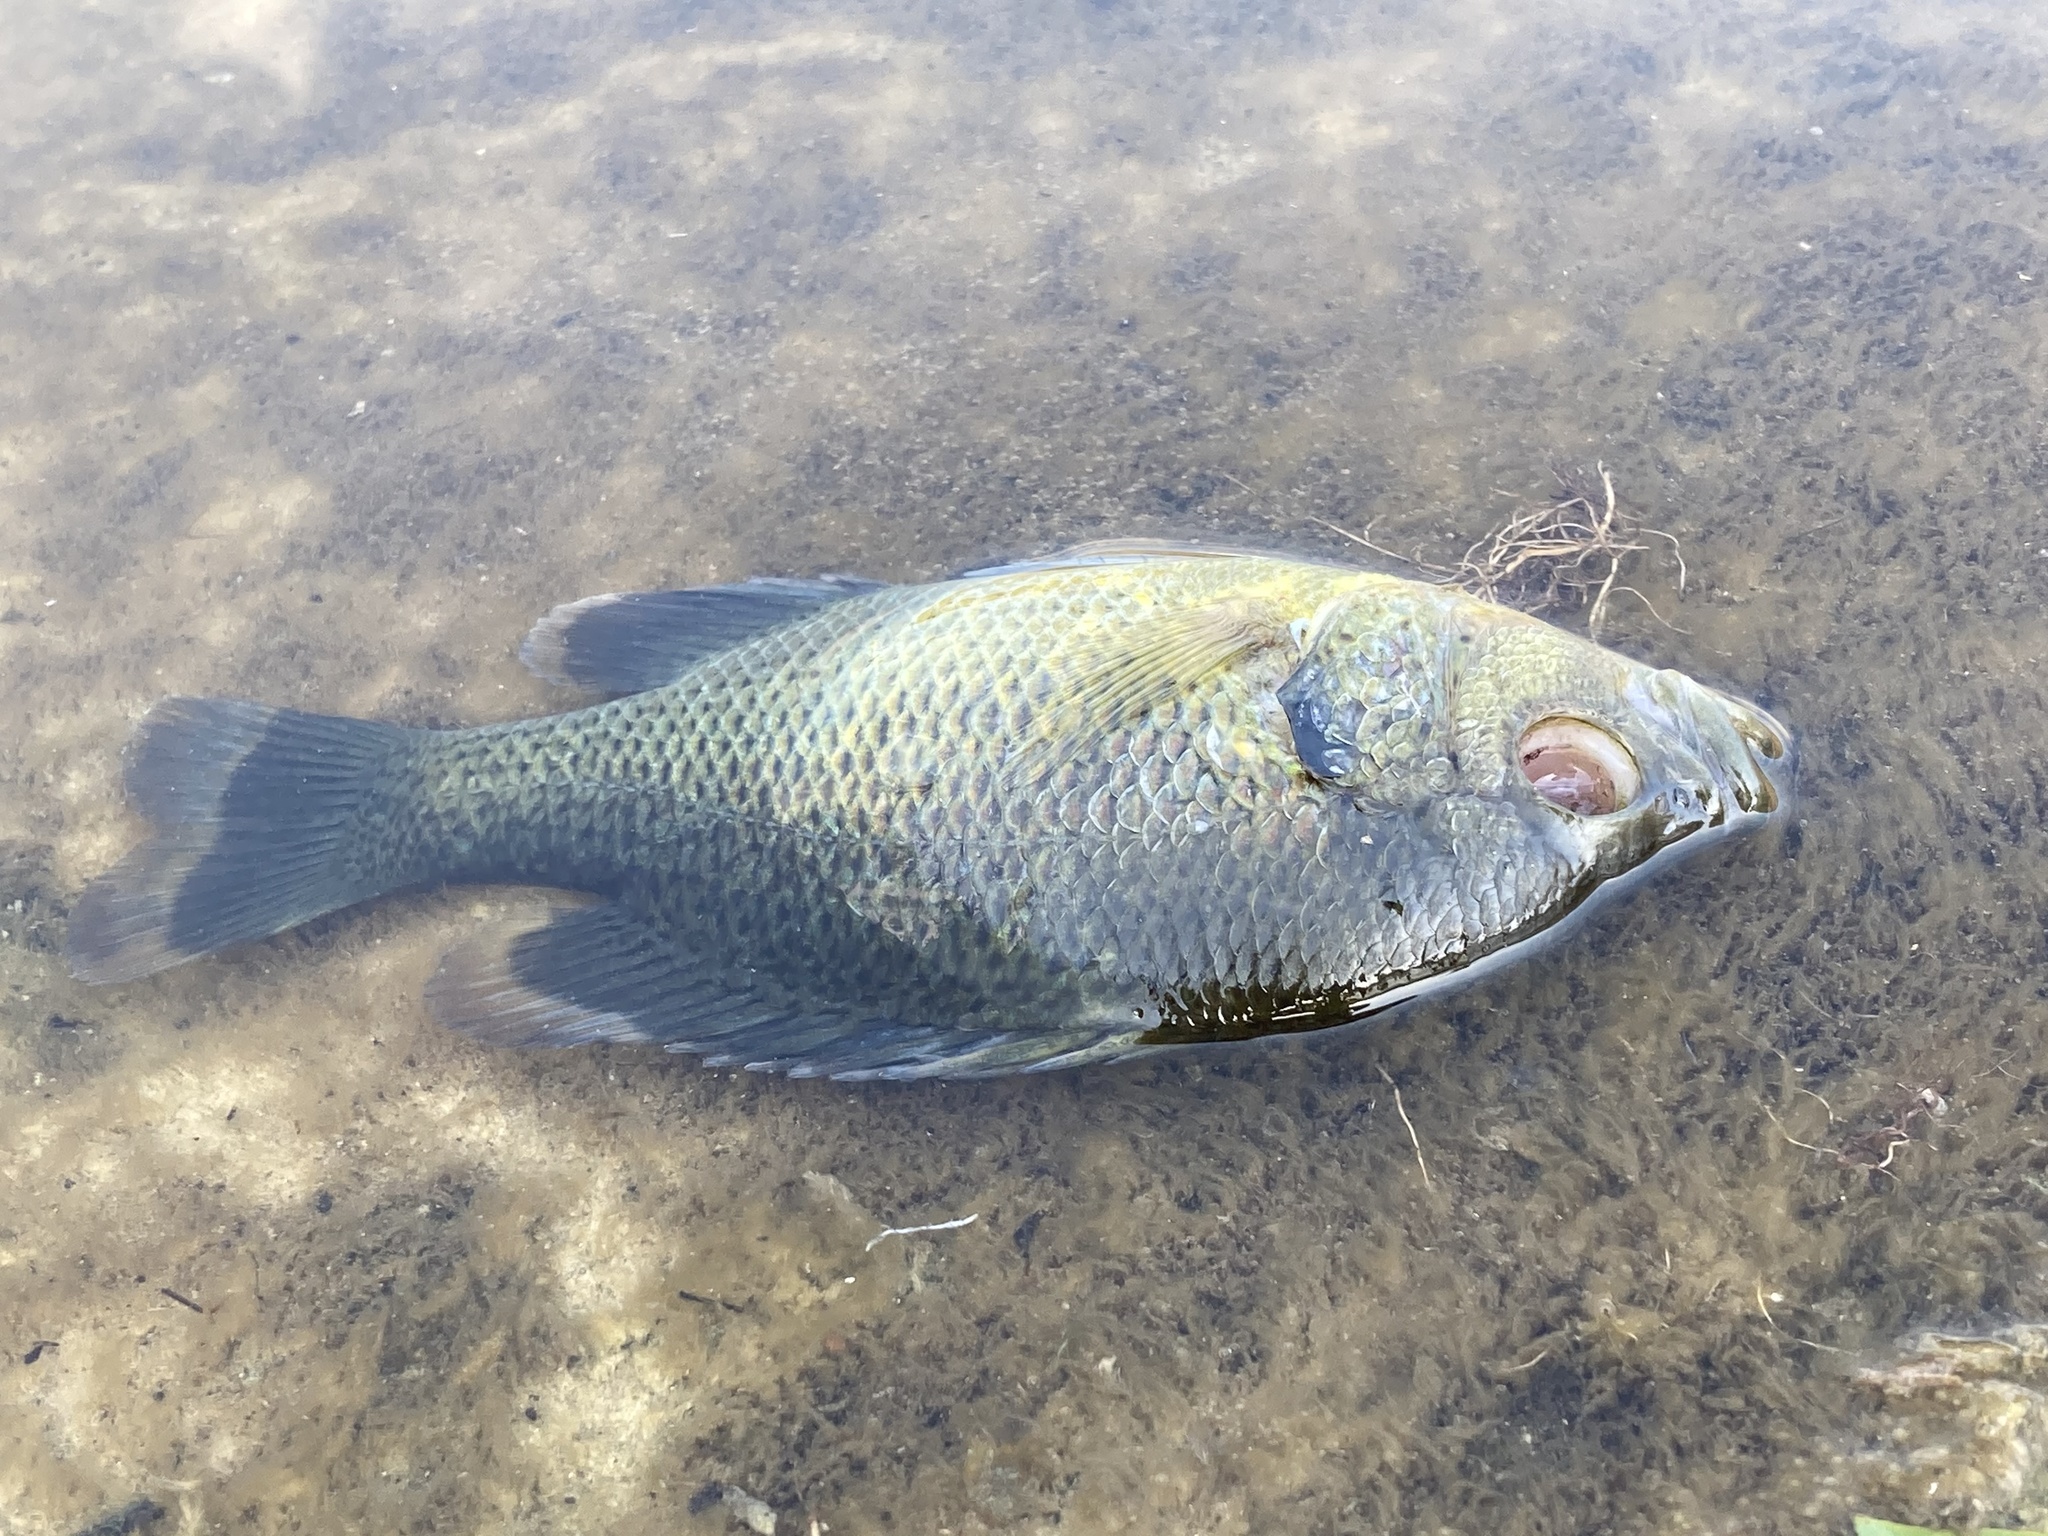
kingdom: Animalia
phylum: Chordata
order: Perciformes
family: Centrarchidae
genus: Lepomis
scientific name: Lepomis punctatus
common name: Spotted sunfish
